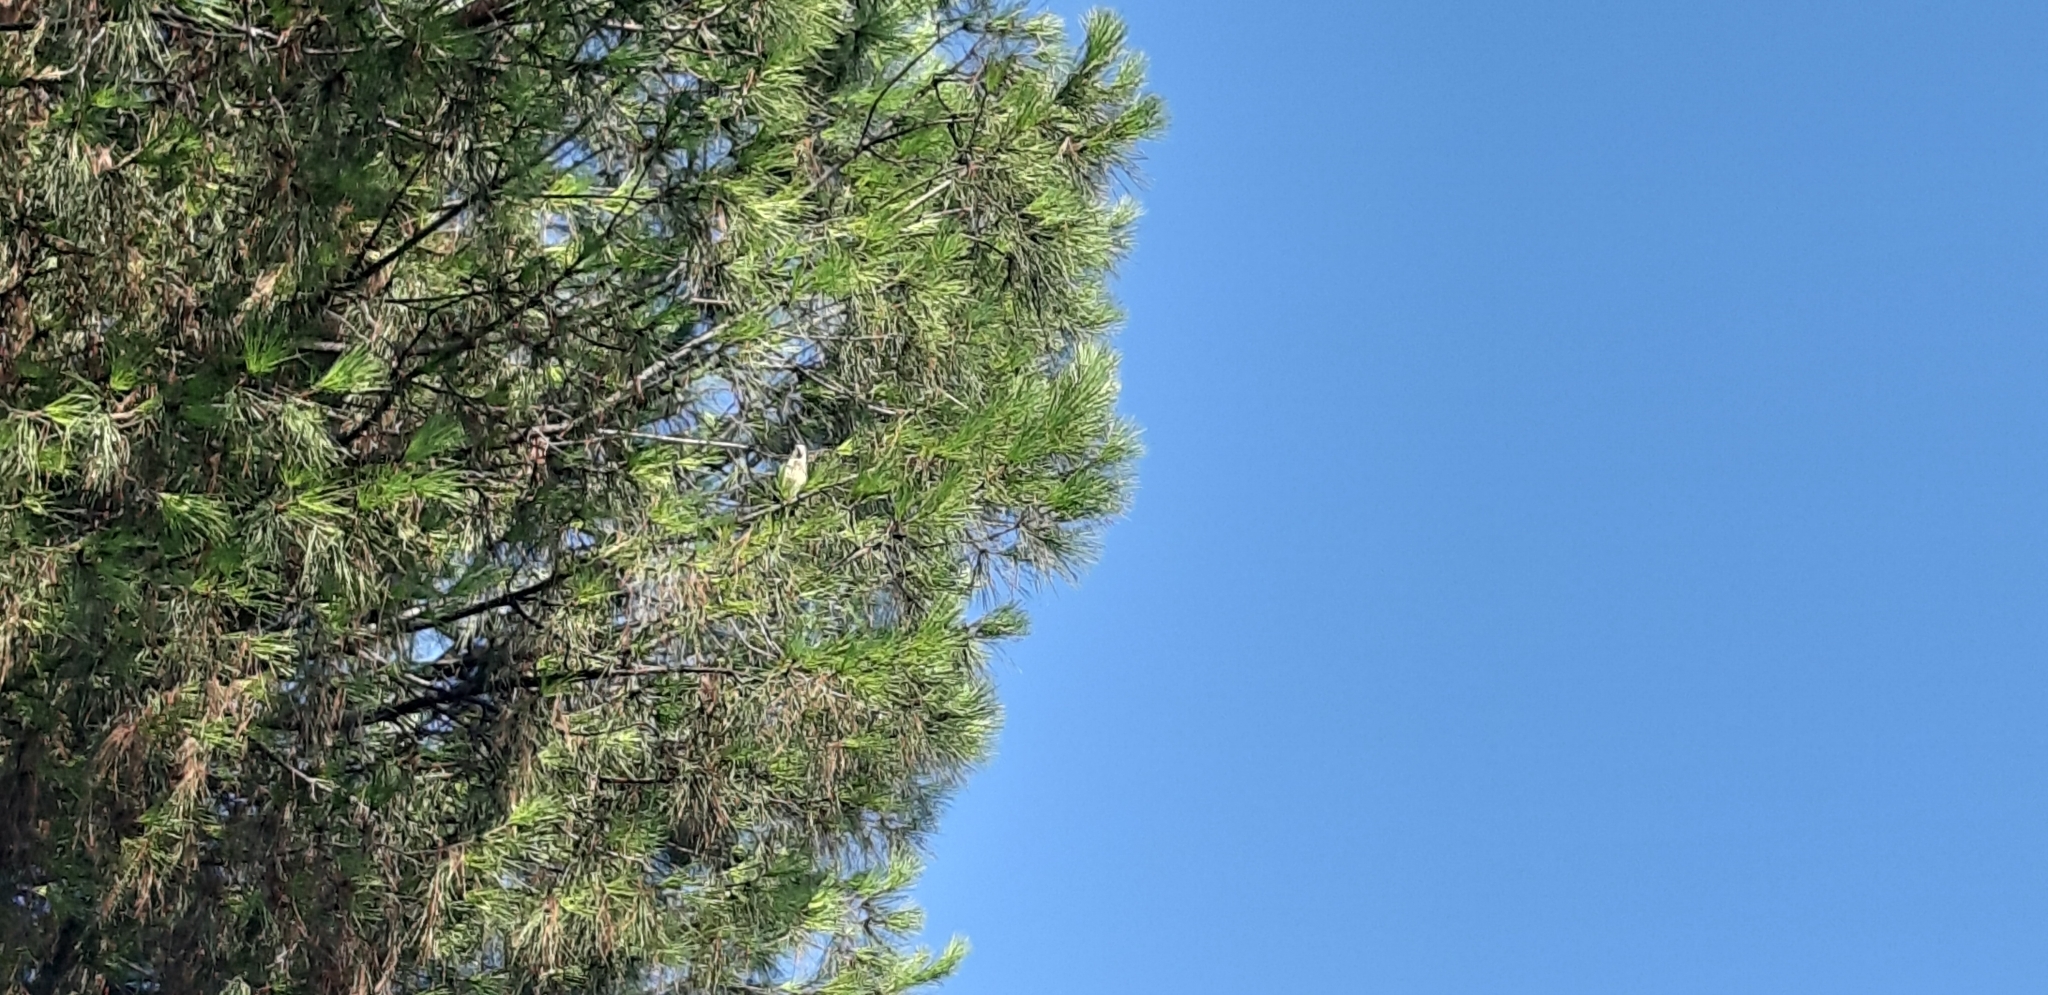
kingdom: Animalia
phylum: Chordata
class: Aves
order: Psittaciformes
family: Psittacidae
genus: Myiopsitta
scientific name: Myiopsitta monachus
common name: Monk parakeet
